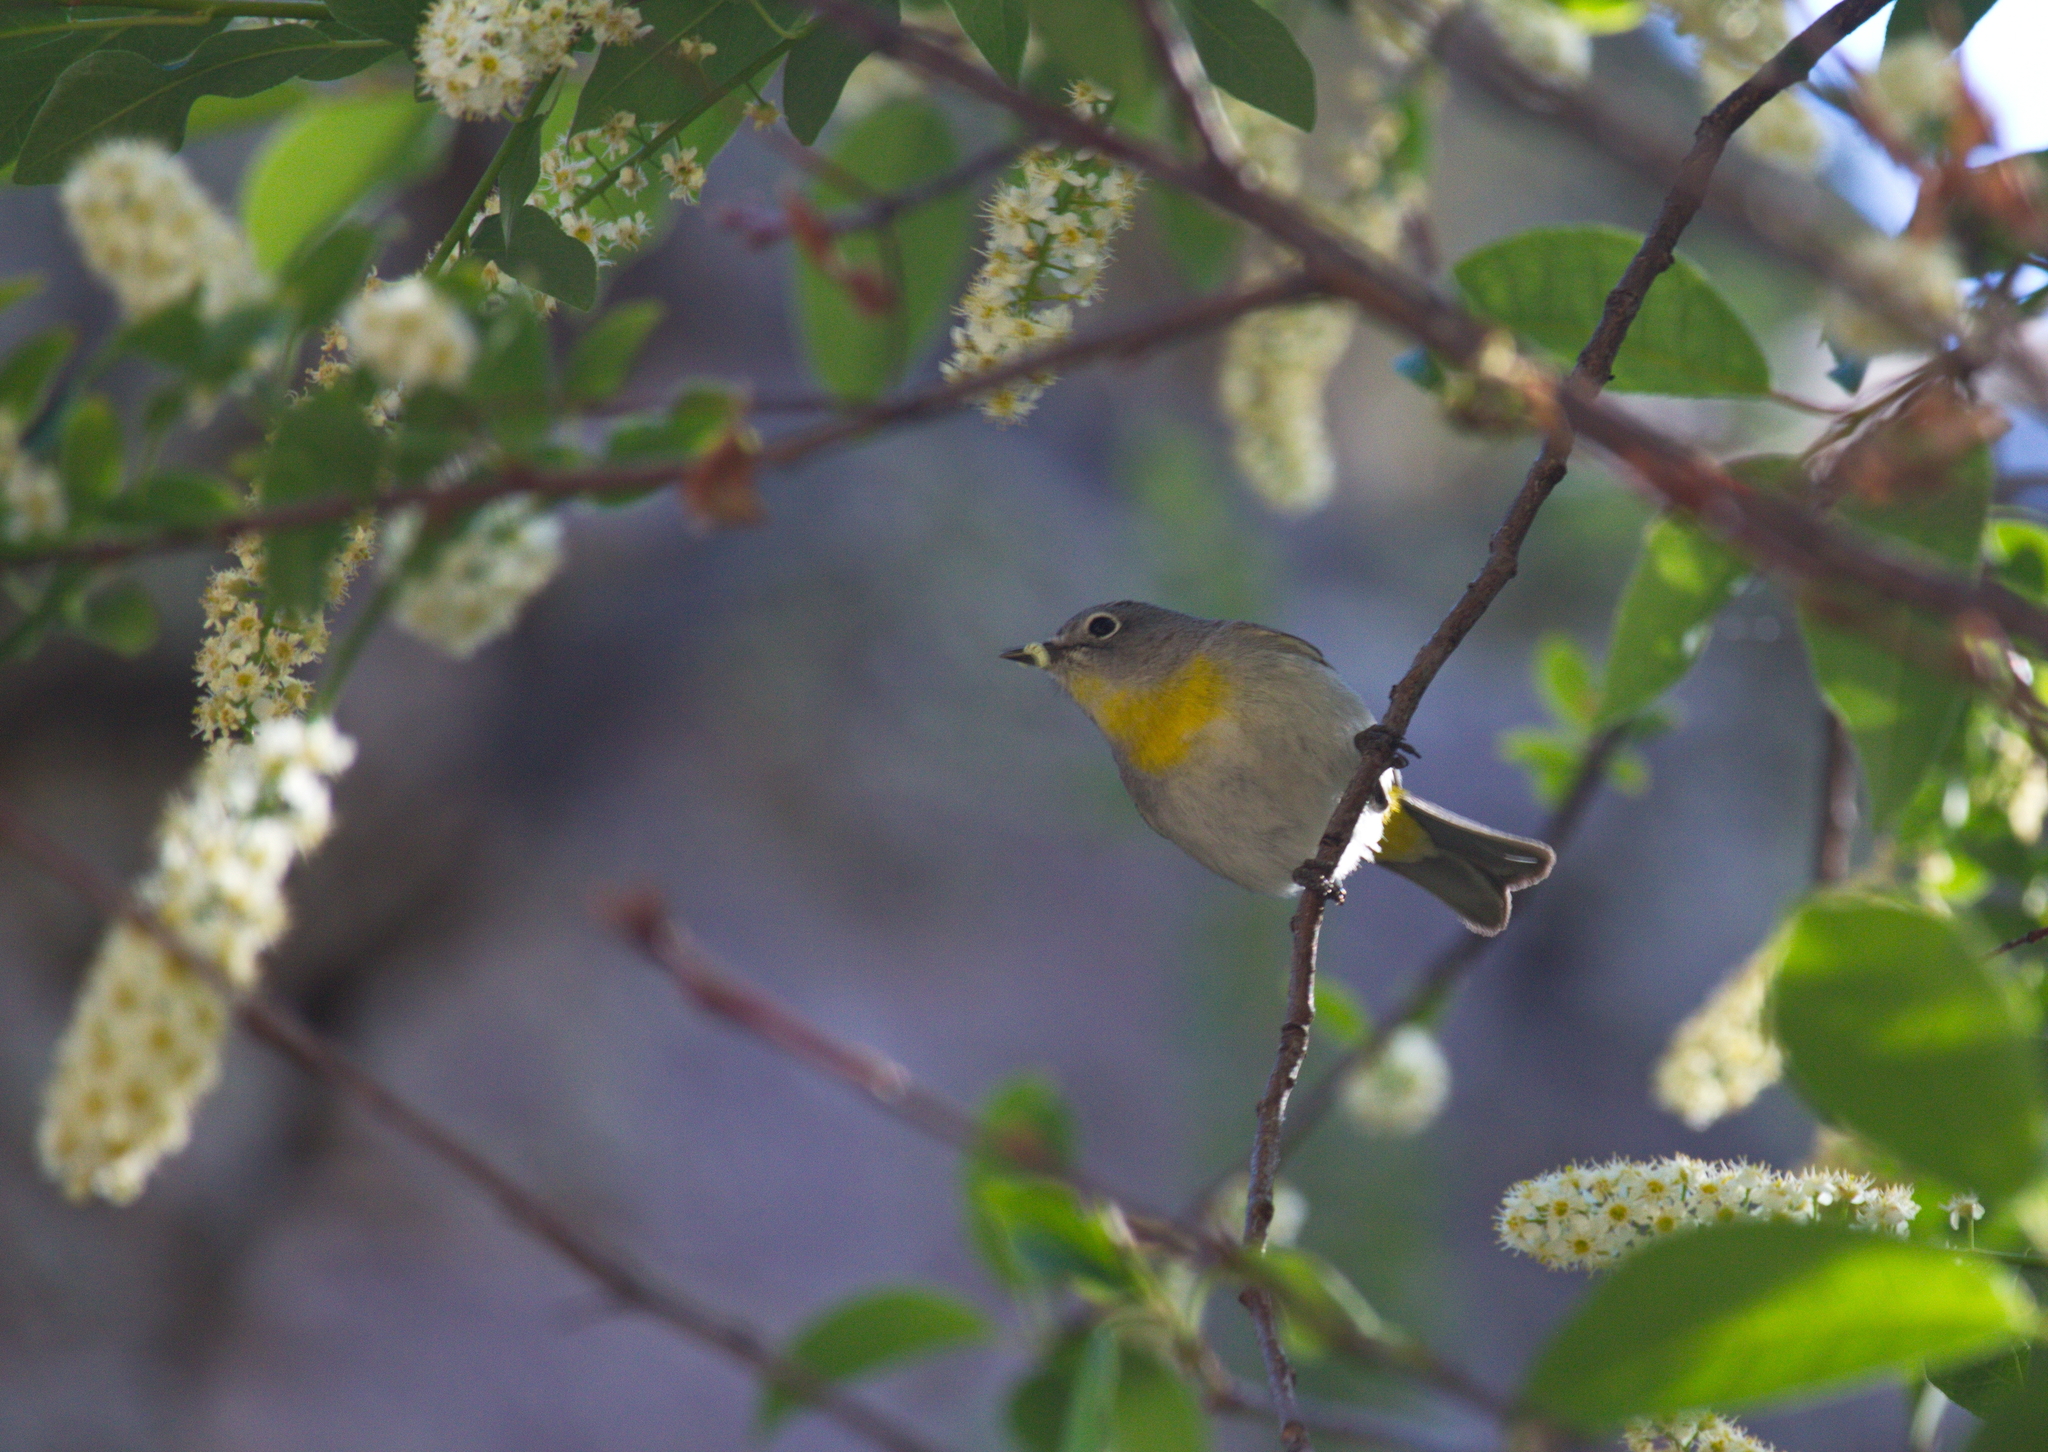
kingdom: Animalia
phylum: Chordata
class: Aves
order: Passeriformes
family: Parulidae
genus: Leiothlypis
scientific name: Leiothlypis virginiae
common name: Virginia's warbler
